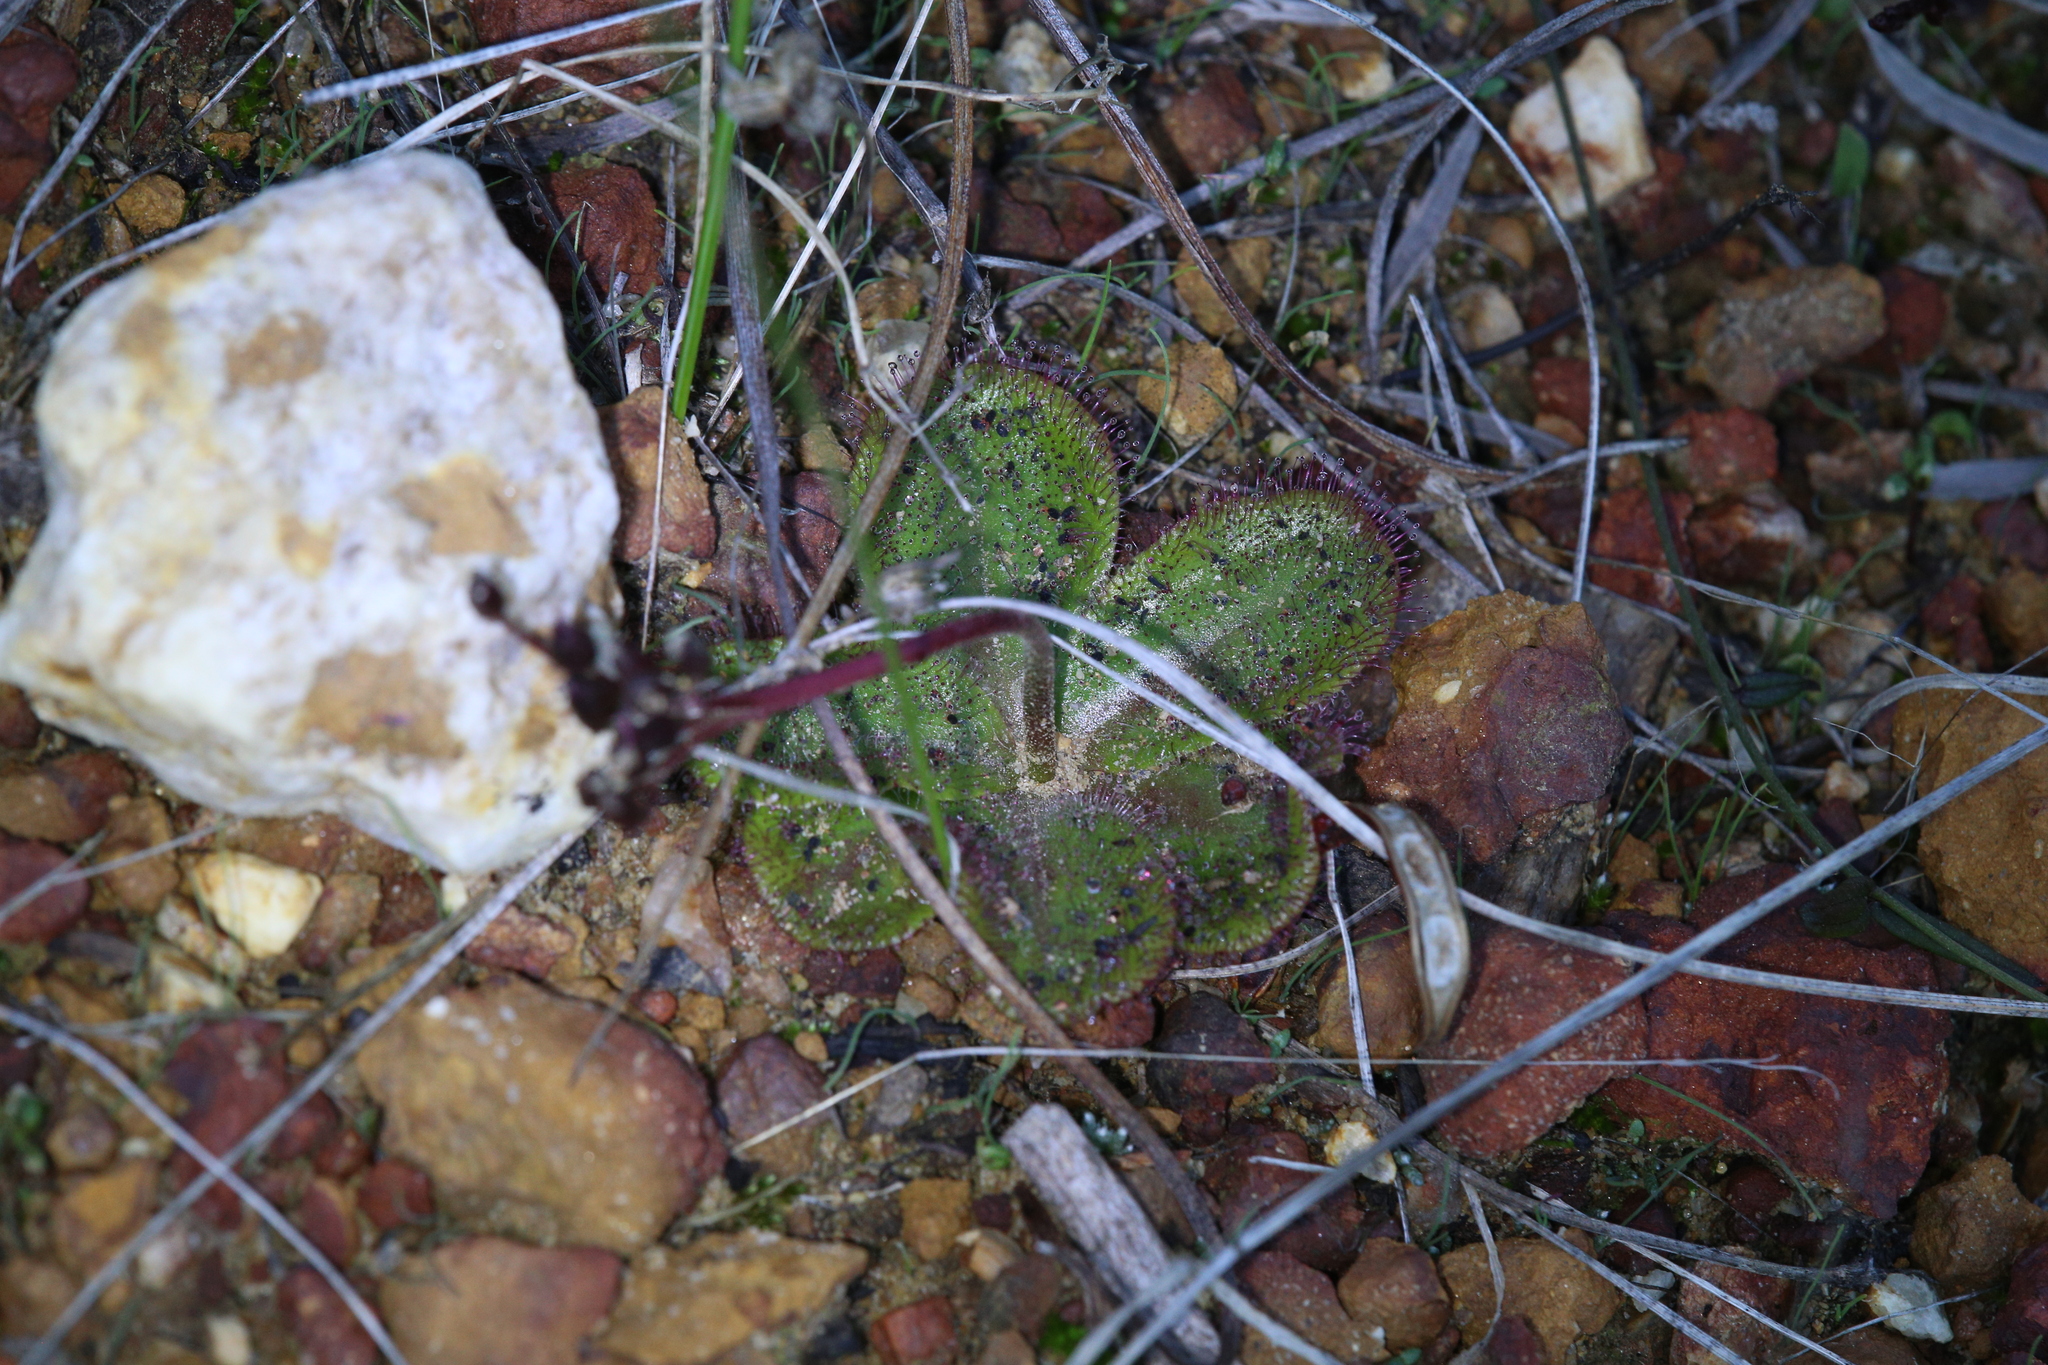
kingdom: Plantae
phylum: Tracheophyta
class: Magnoliopsida
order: Caryophyllales
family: Droseraceae
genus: Drosera
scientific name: Drosera erythrorhiza
